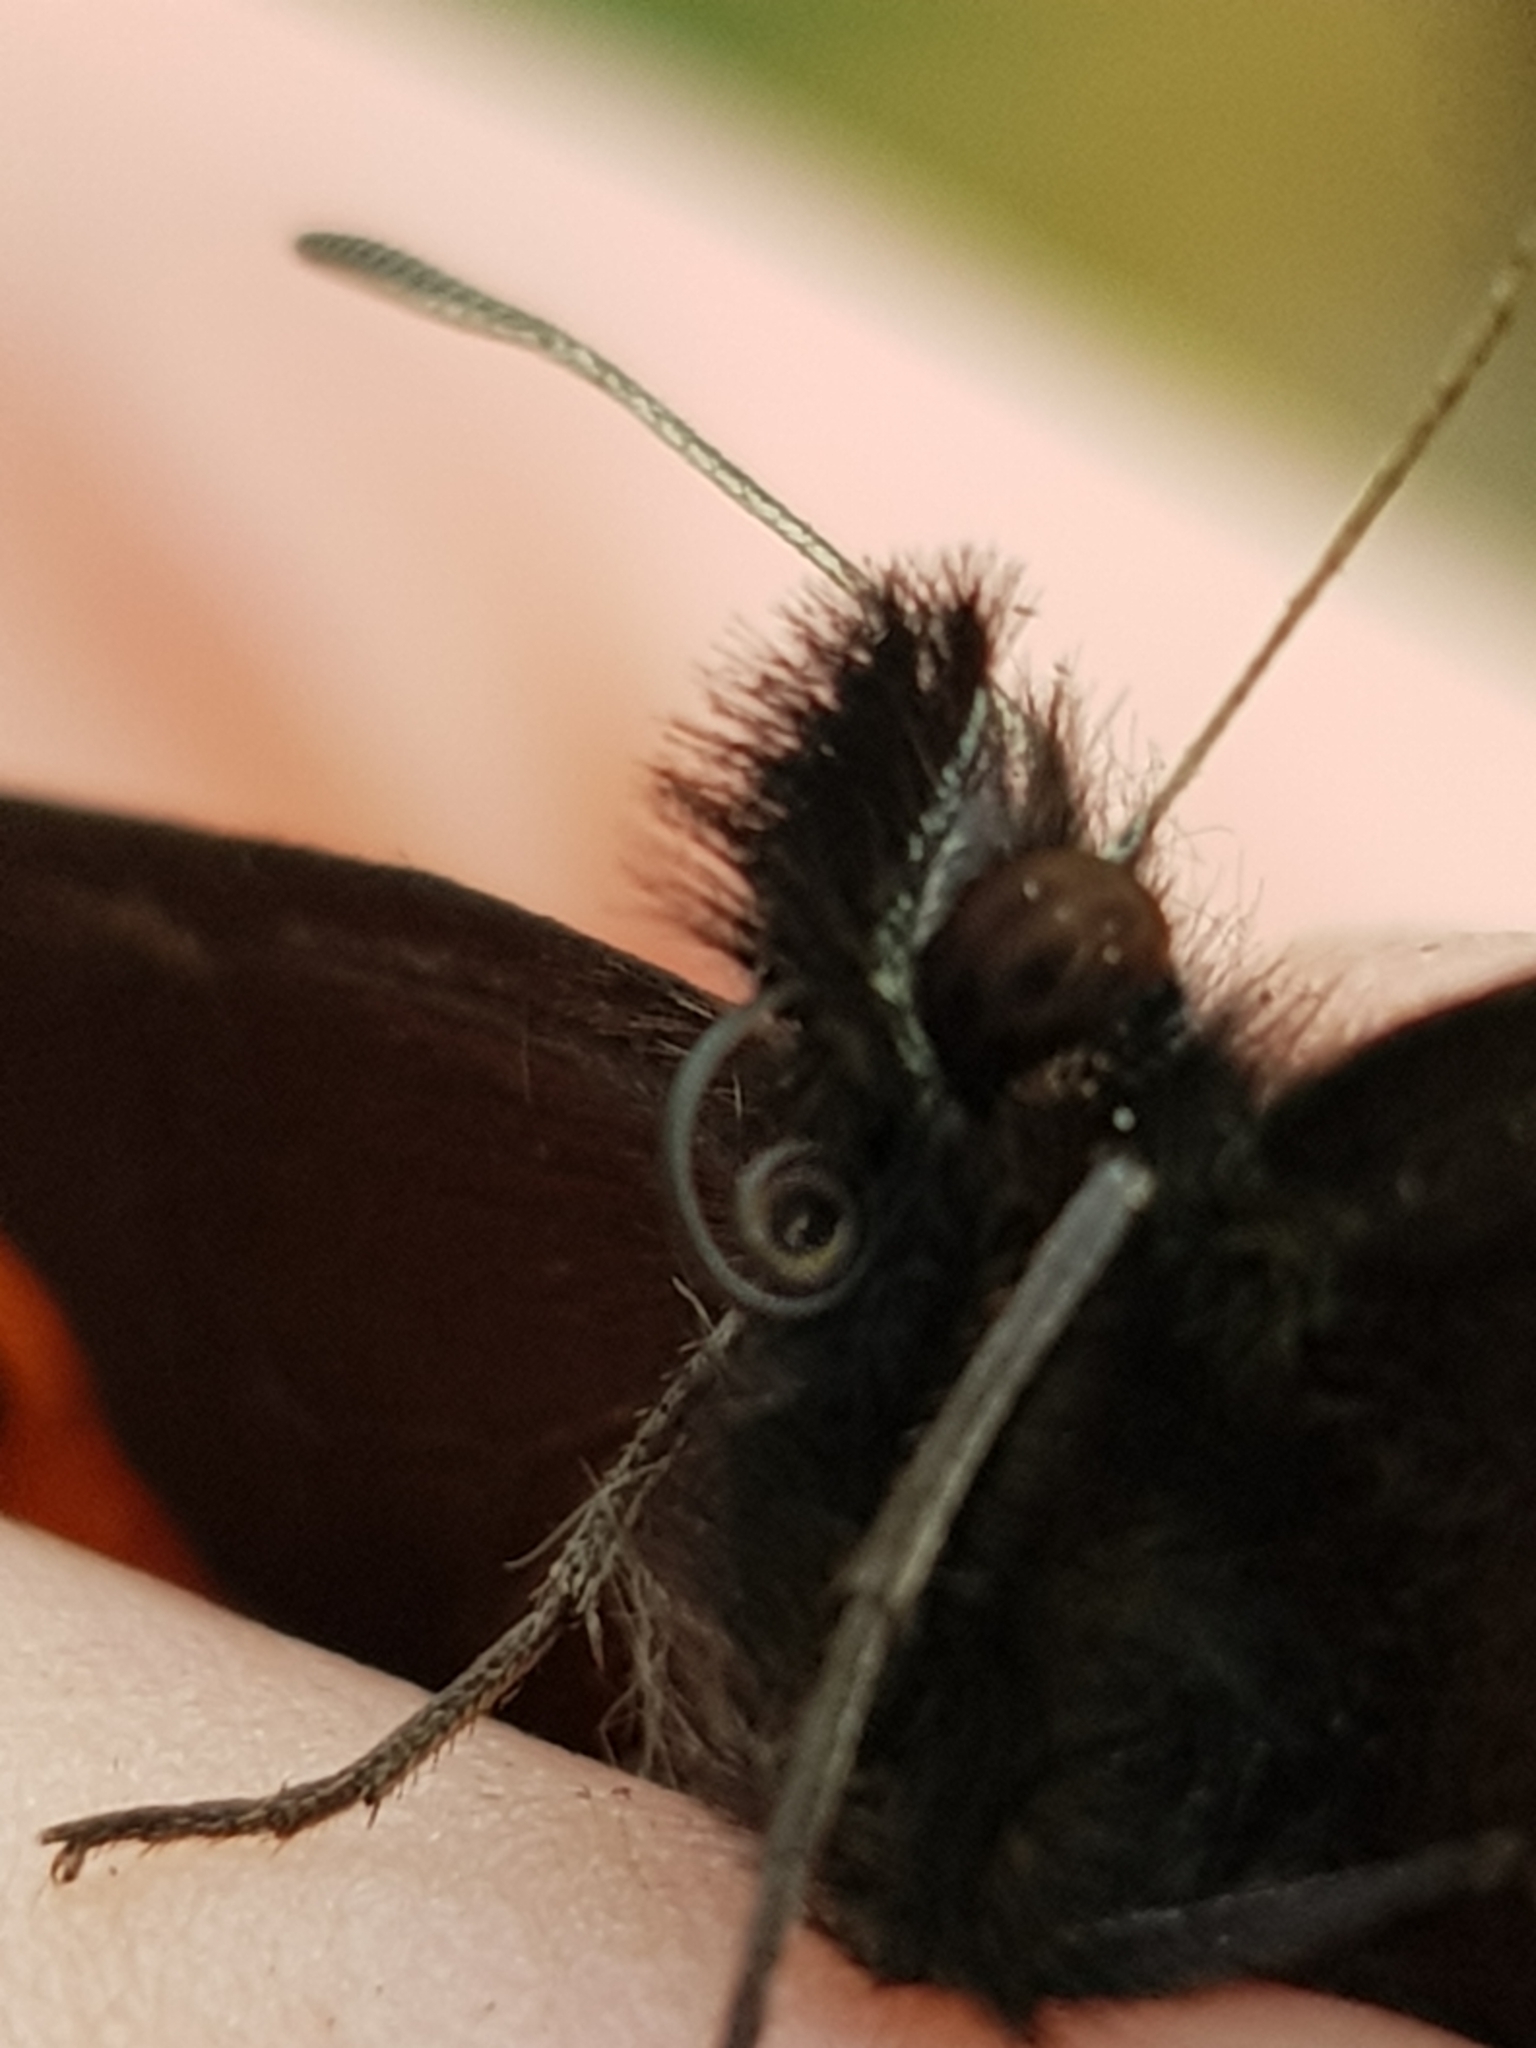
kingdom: Animalia
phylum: Arthropoda
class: Insecta
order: Lepidoptera
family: Nymphalidae
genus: Erebia
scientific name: Erebia ligea
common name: Arran brown
